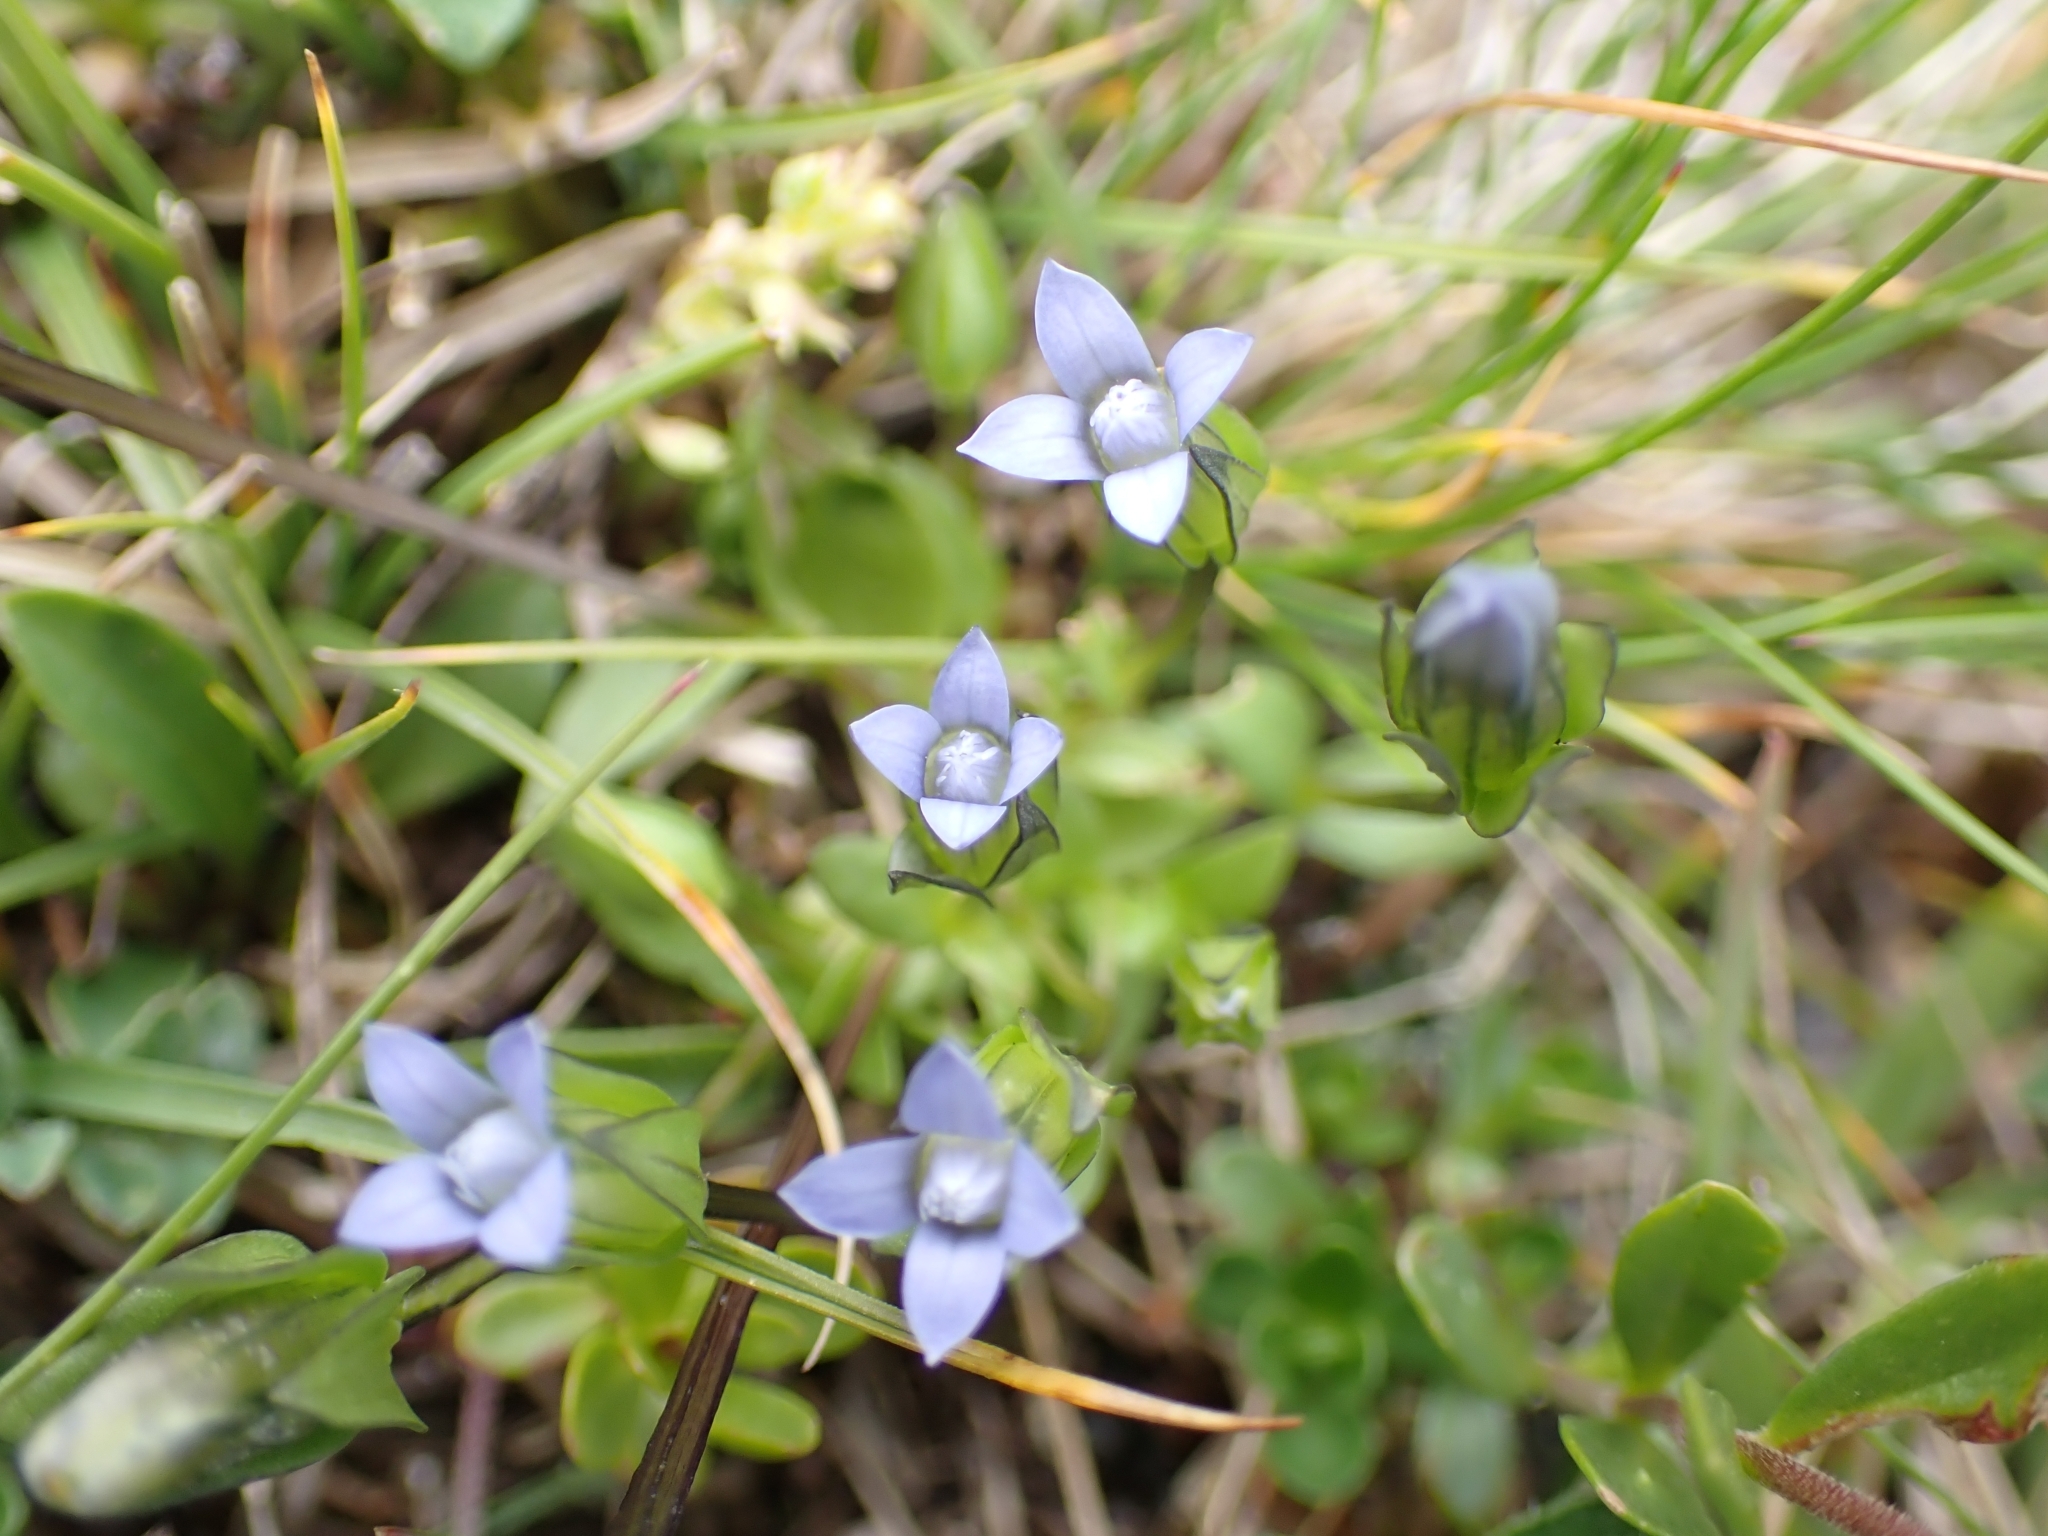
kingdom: Plantae
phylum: Tracheophyta
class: Magnoliopsida
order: Gentianales
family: Gentianaceae
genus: Comastoma
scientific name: Comastoma tenellum
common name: Dane's dwarf gentian
